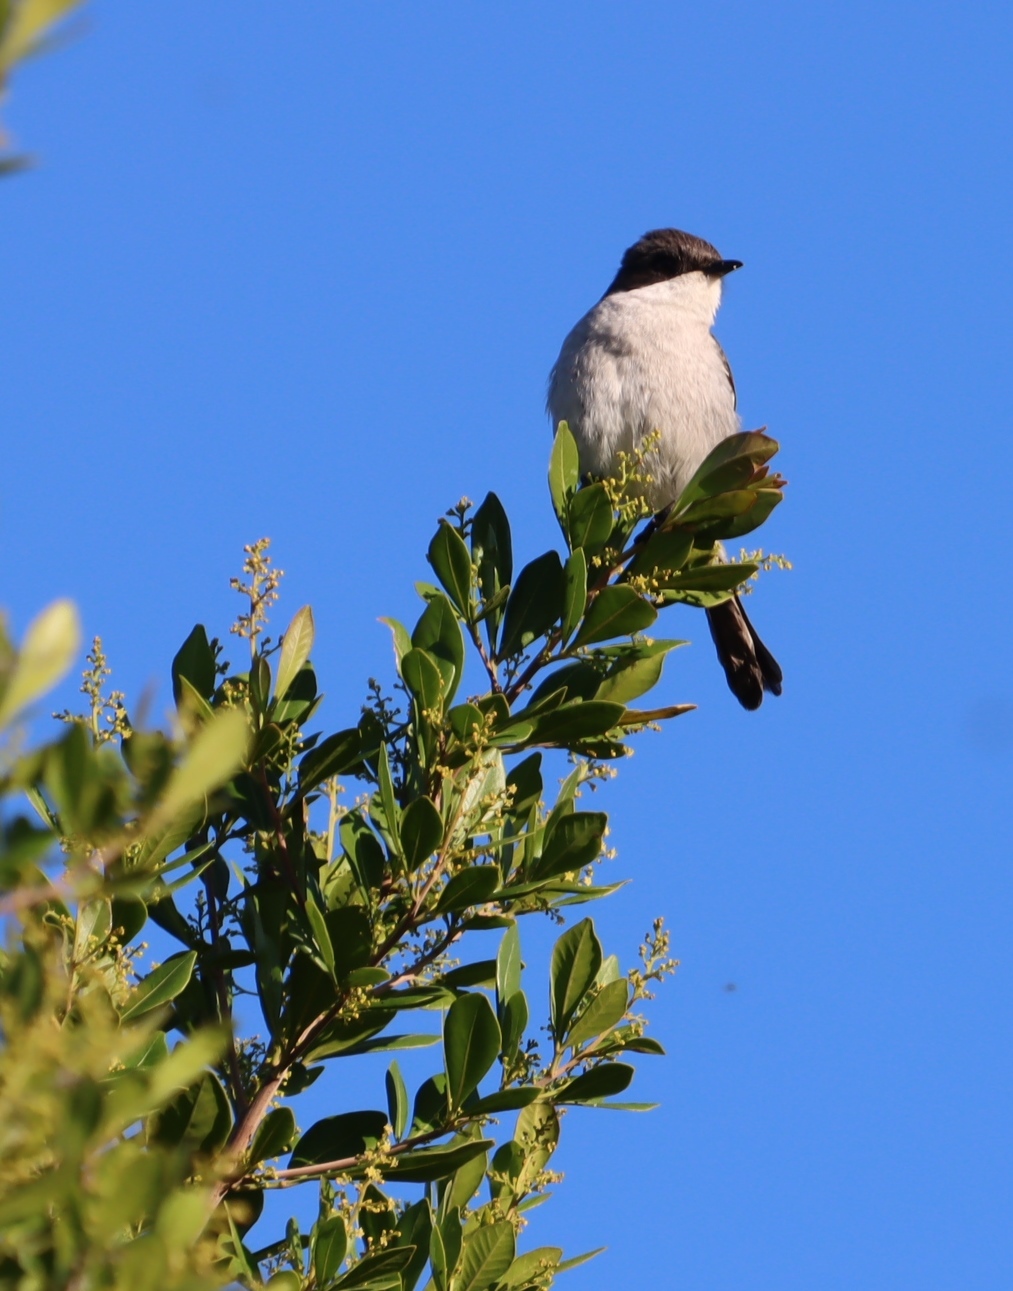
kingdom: Animalia
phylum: Chordata
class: Aves
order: Passeriformes
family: Muscicapidae
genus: Sigelus
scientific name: Sigelus silens
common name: Fiscal flycatcher
